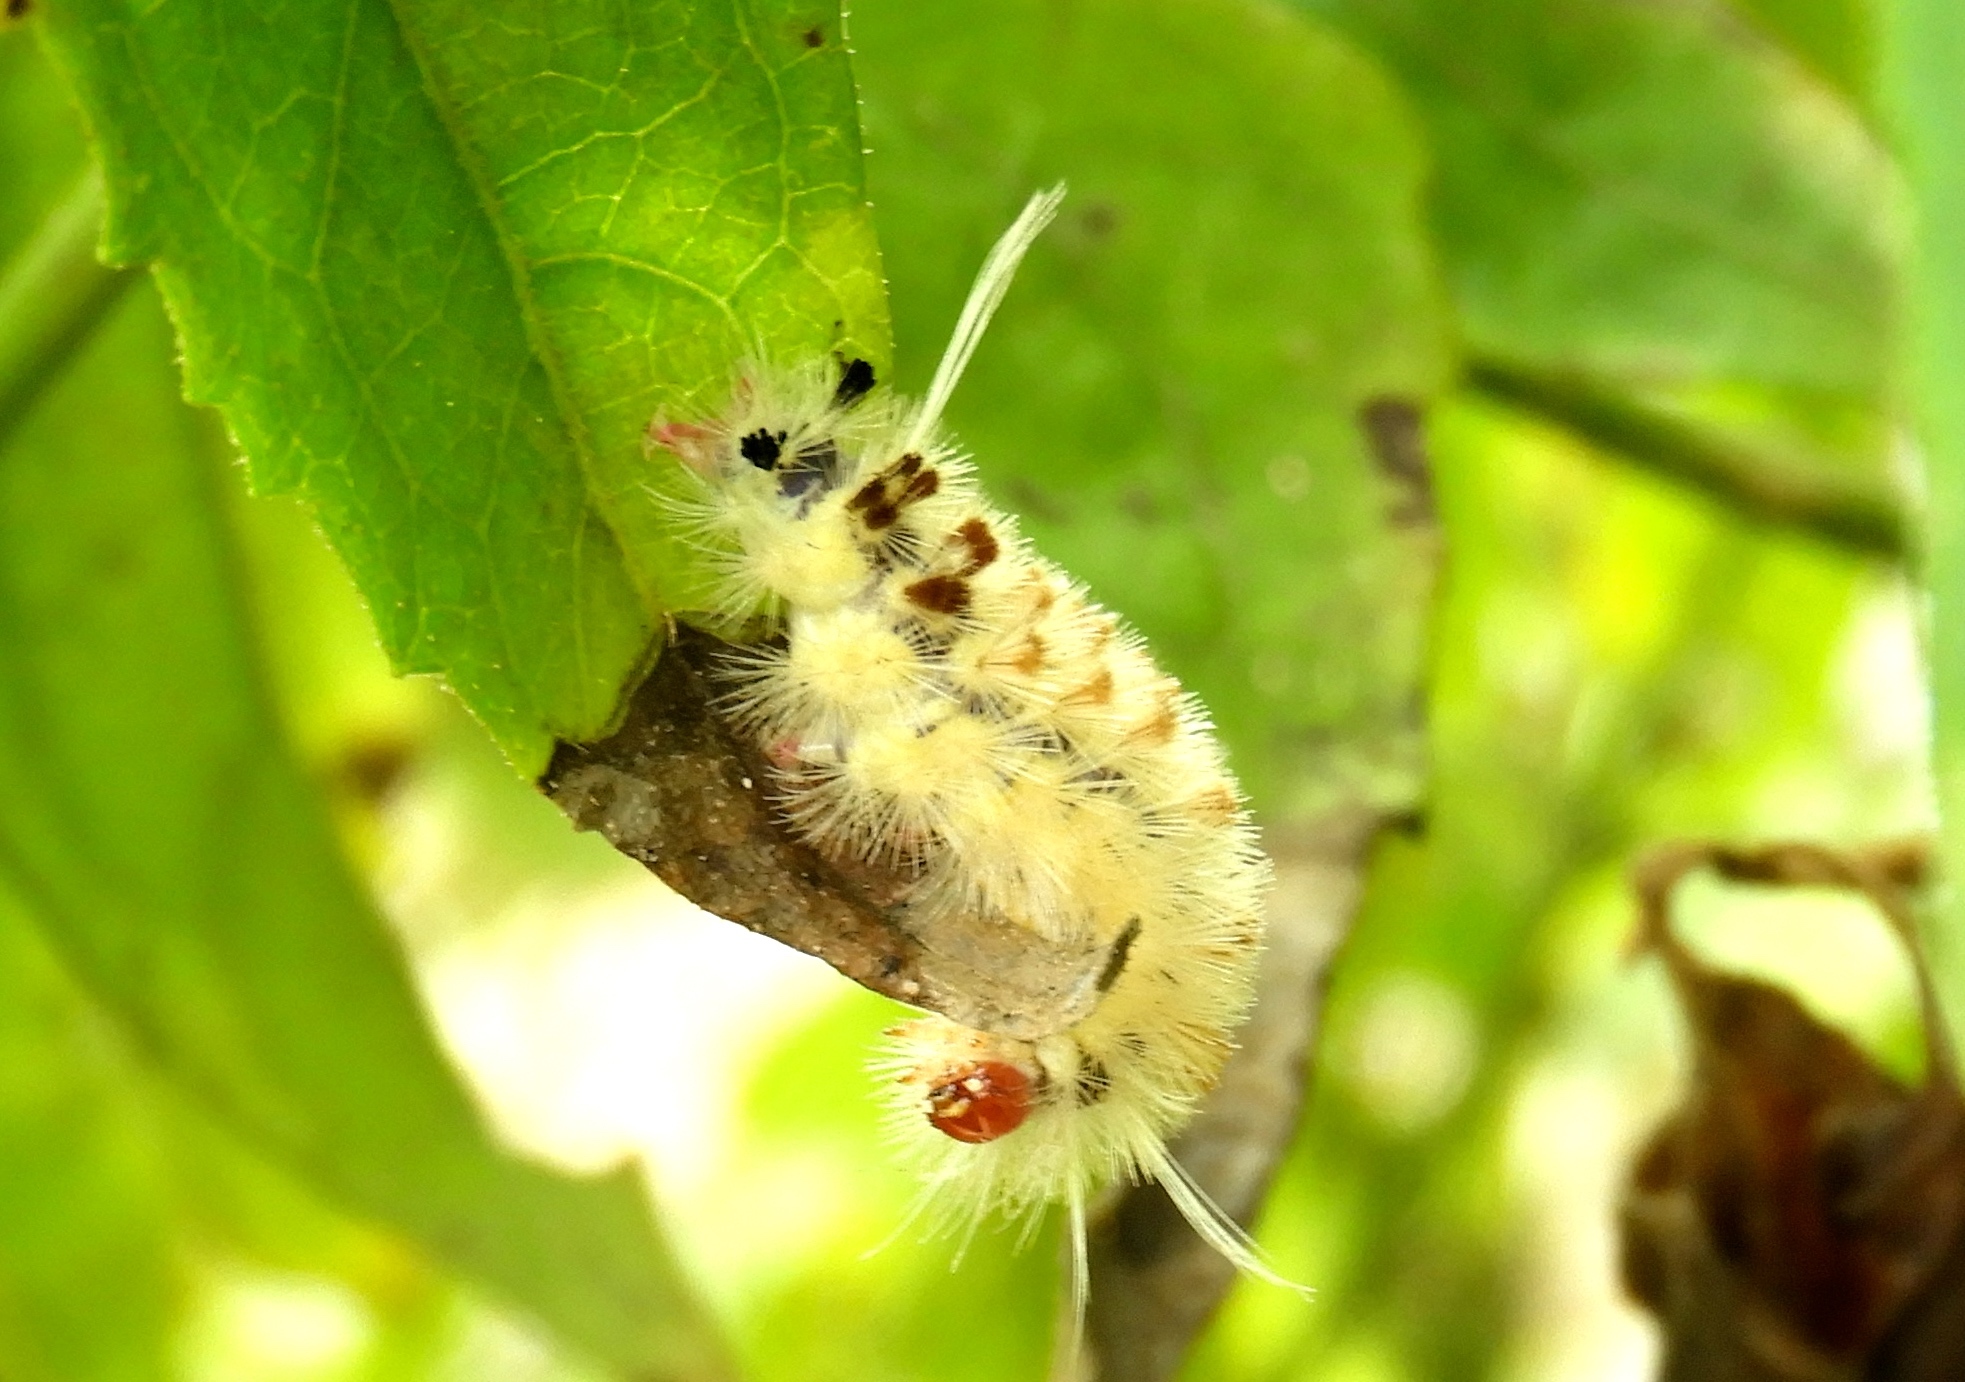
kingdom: Animalia
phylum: Arthropoda
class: Insecta
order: Lepidoptera
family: Erebidae
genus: Lophocampa
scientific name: Lophocampa
